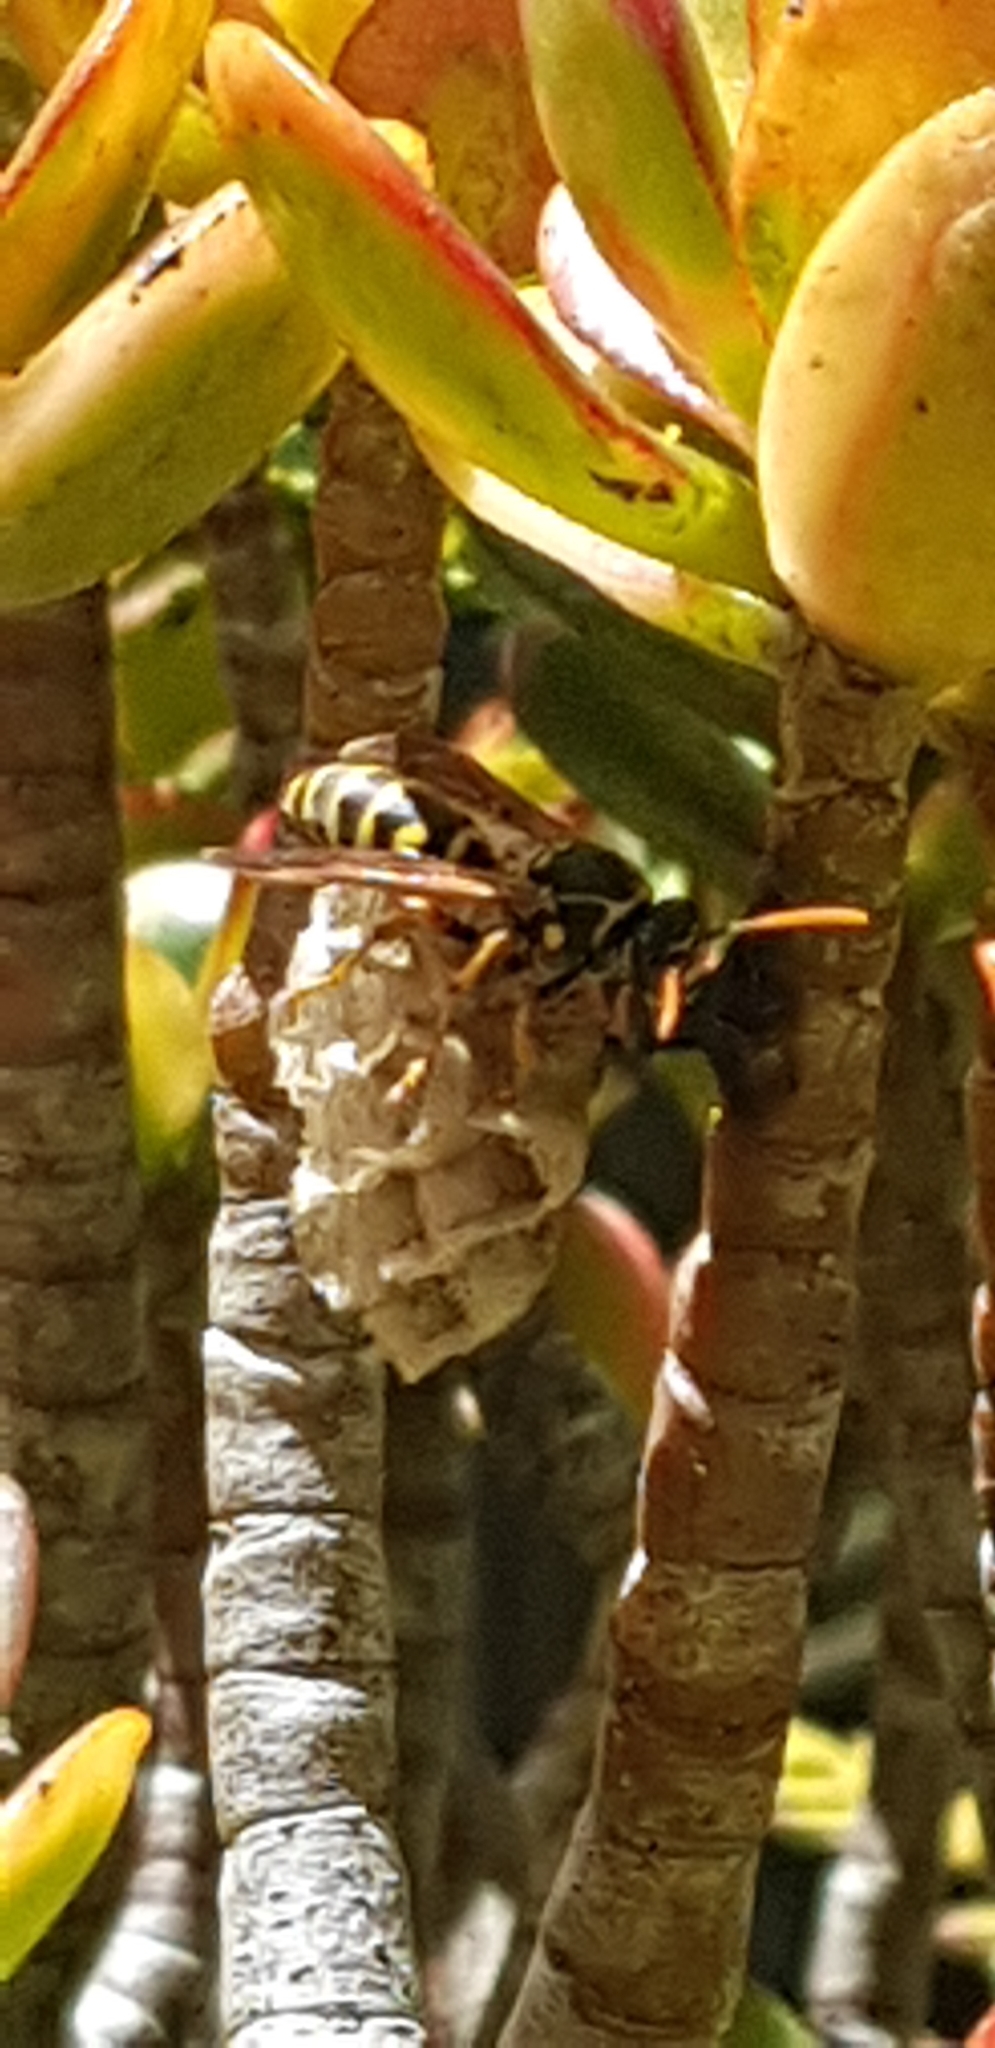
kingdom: Animalia
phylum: Arthropoda
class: Insecta
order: Hymenoptera
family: Eumenidae
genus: Polistes
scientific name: Polistes chinensis
